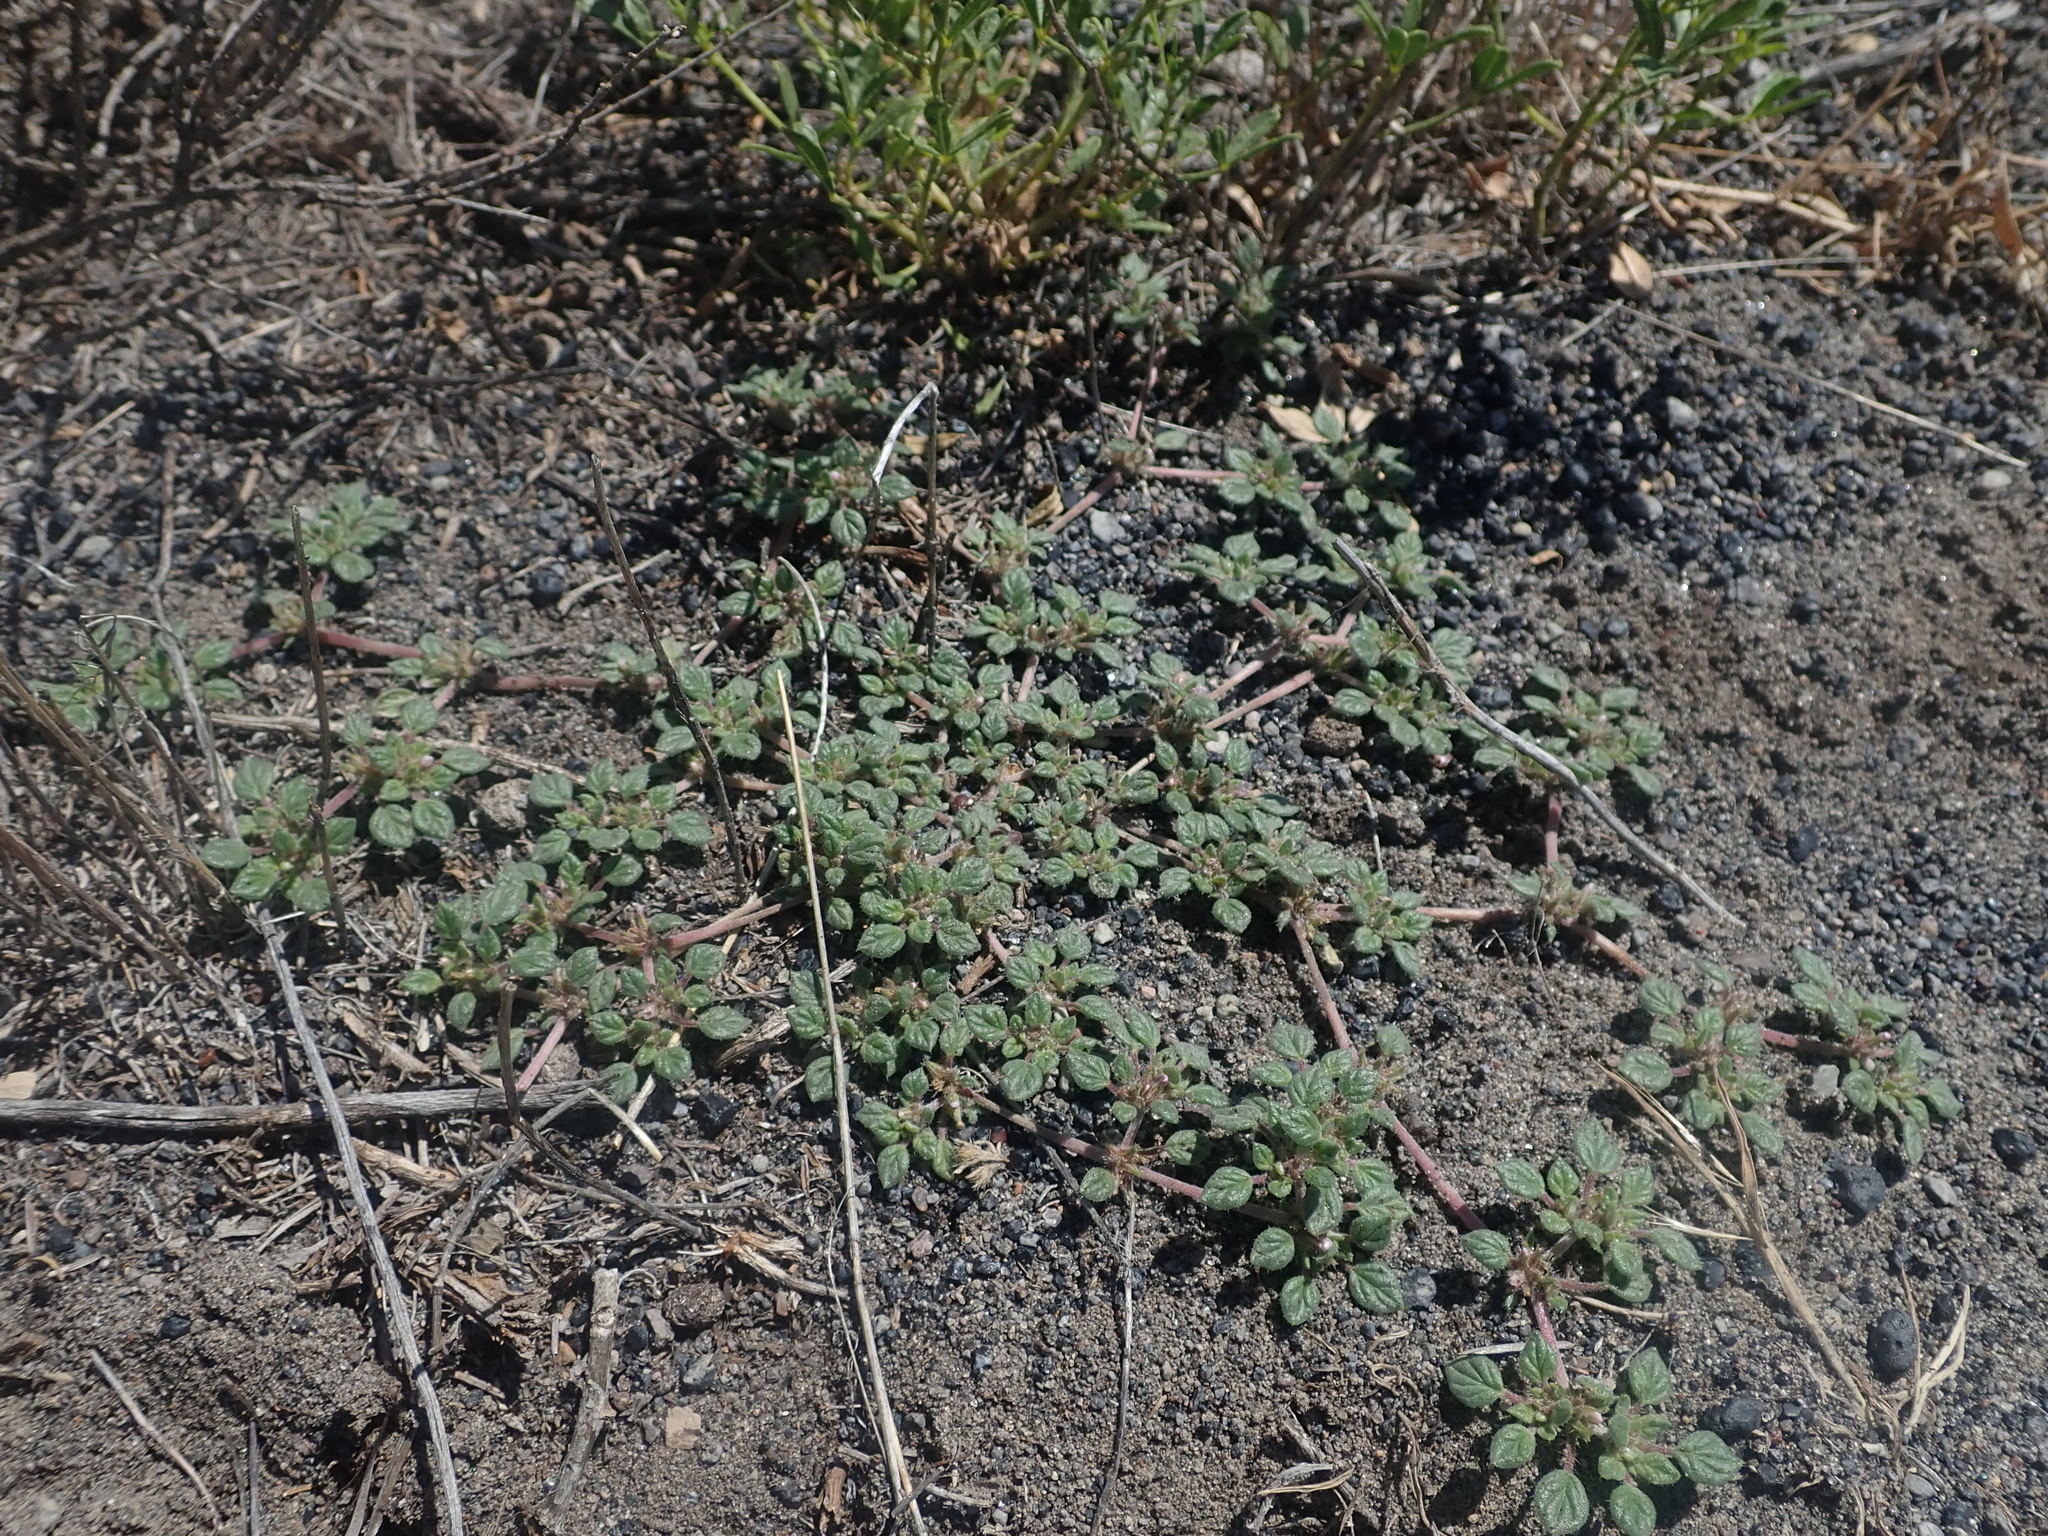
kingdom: Plantae
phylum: Tracheophyta
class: Magnoliopsida
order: Boraginales
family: Ehretiaceae
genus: Tiquilia
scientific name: Tiquilia nuttallii
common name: Rosette tiquilia
